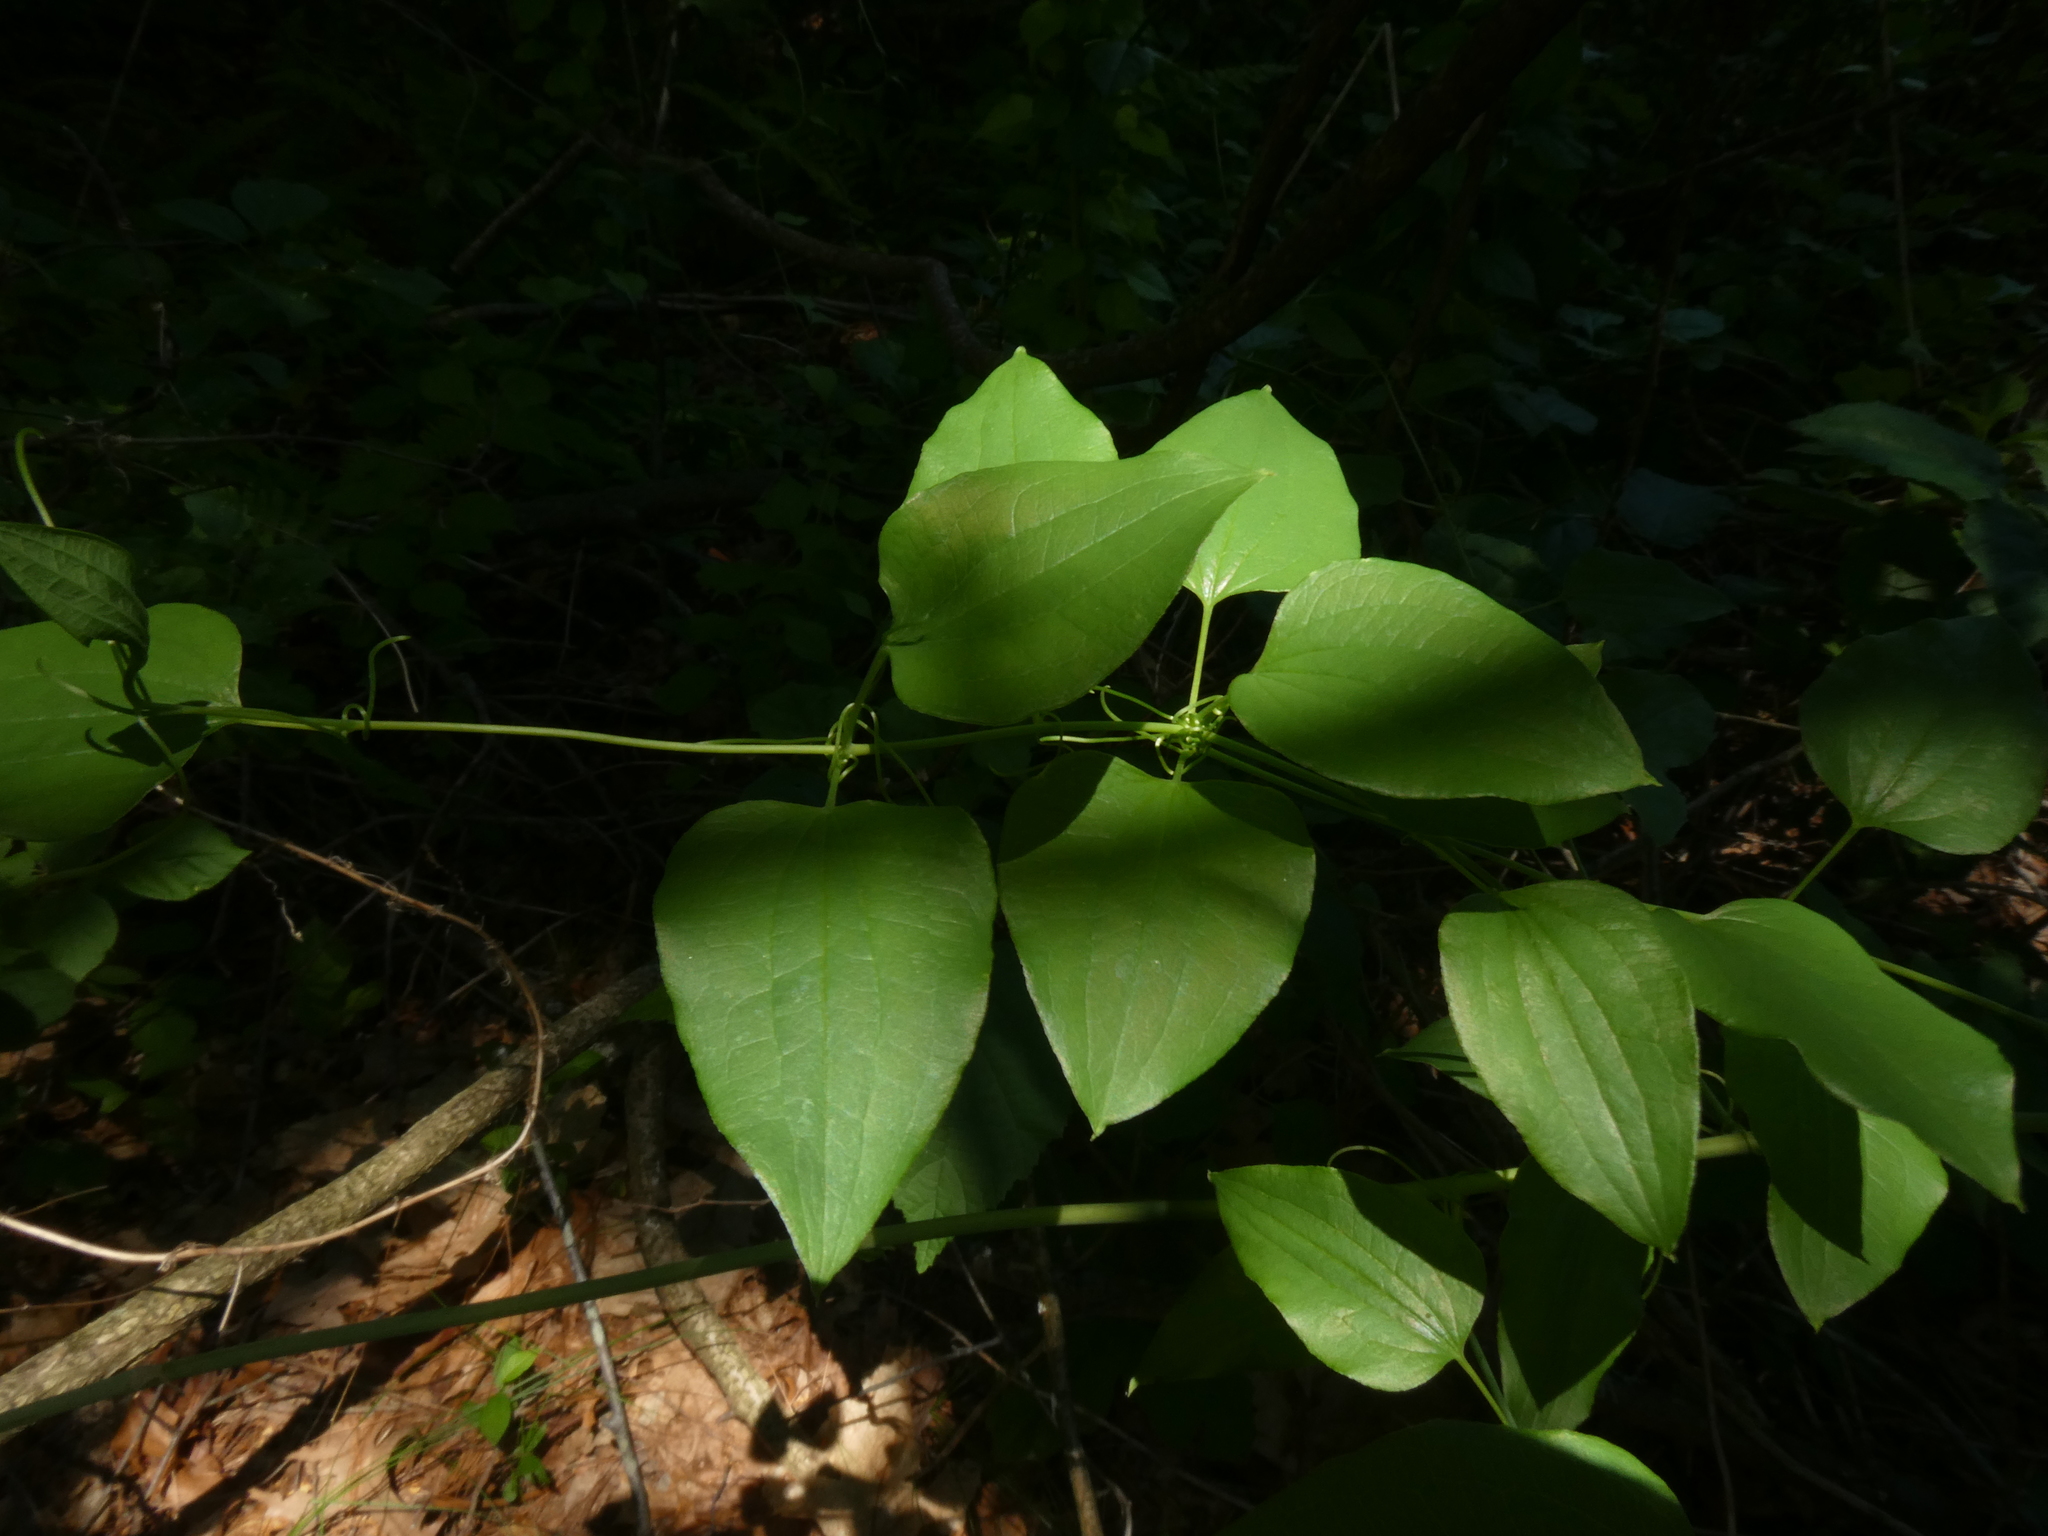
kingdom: Plantae
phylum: Tracheophyta
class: Liliopsida
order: Liliales
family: Smilacaceae
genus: Smilax
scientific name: Smilax herbacea
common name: Jacob's-ladder
